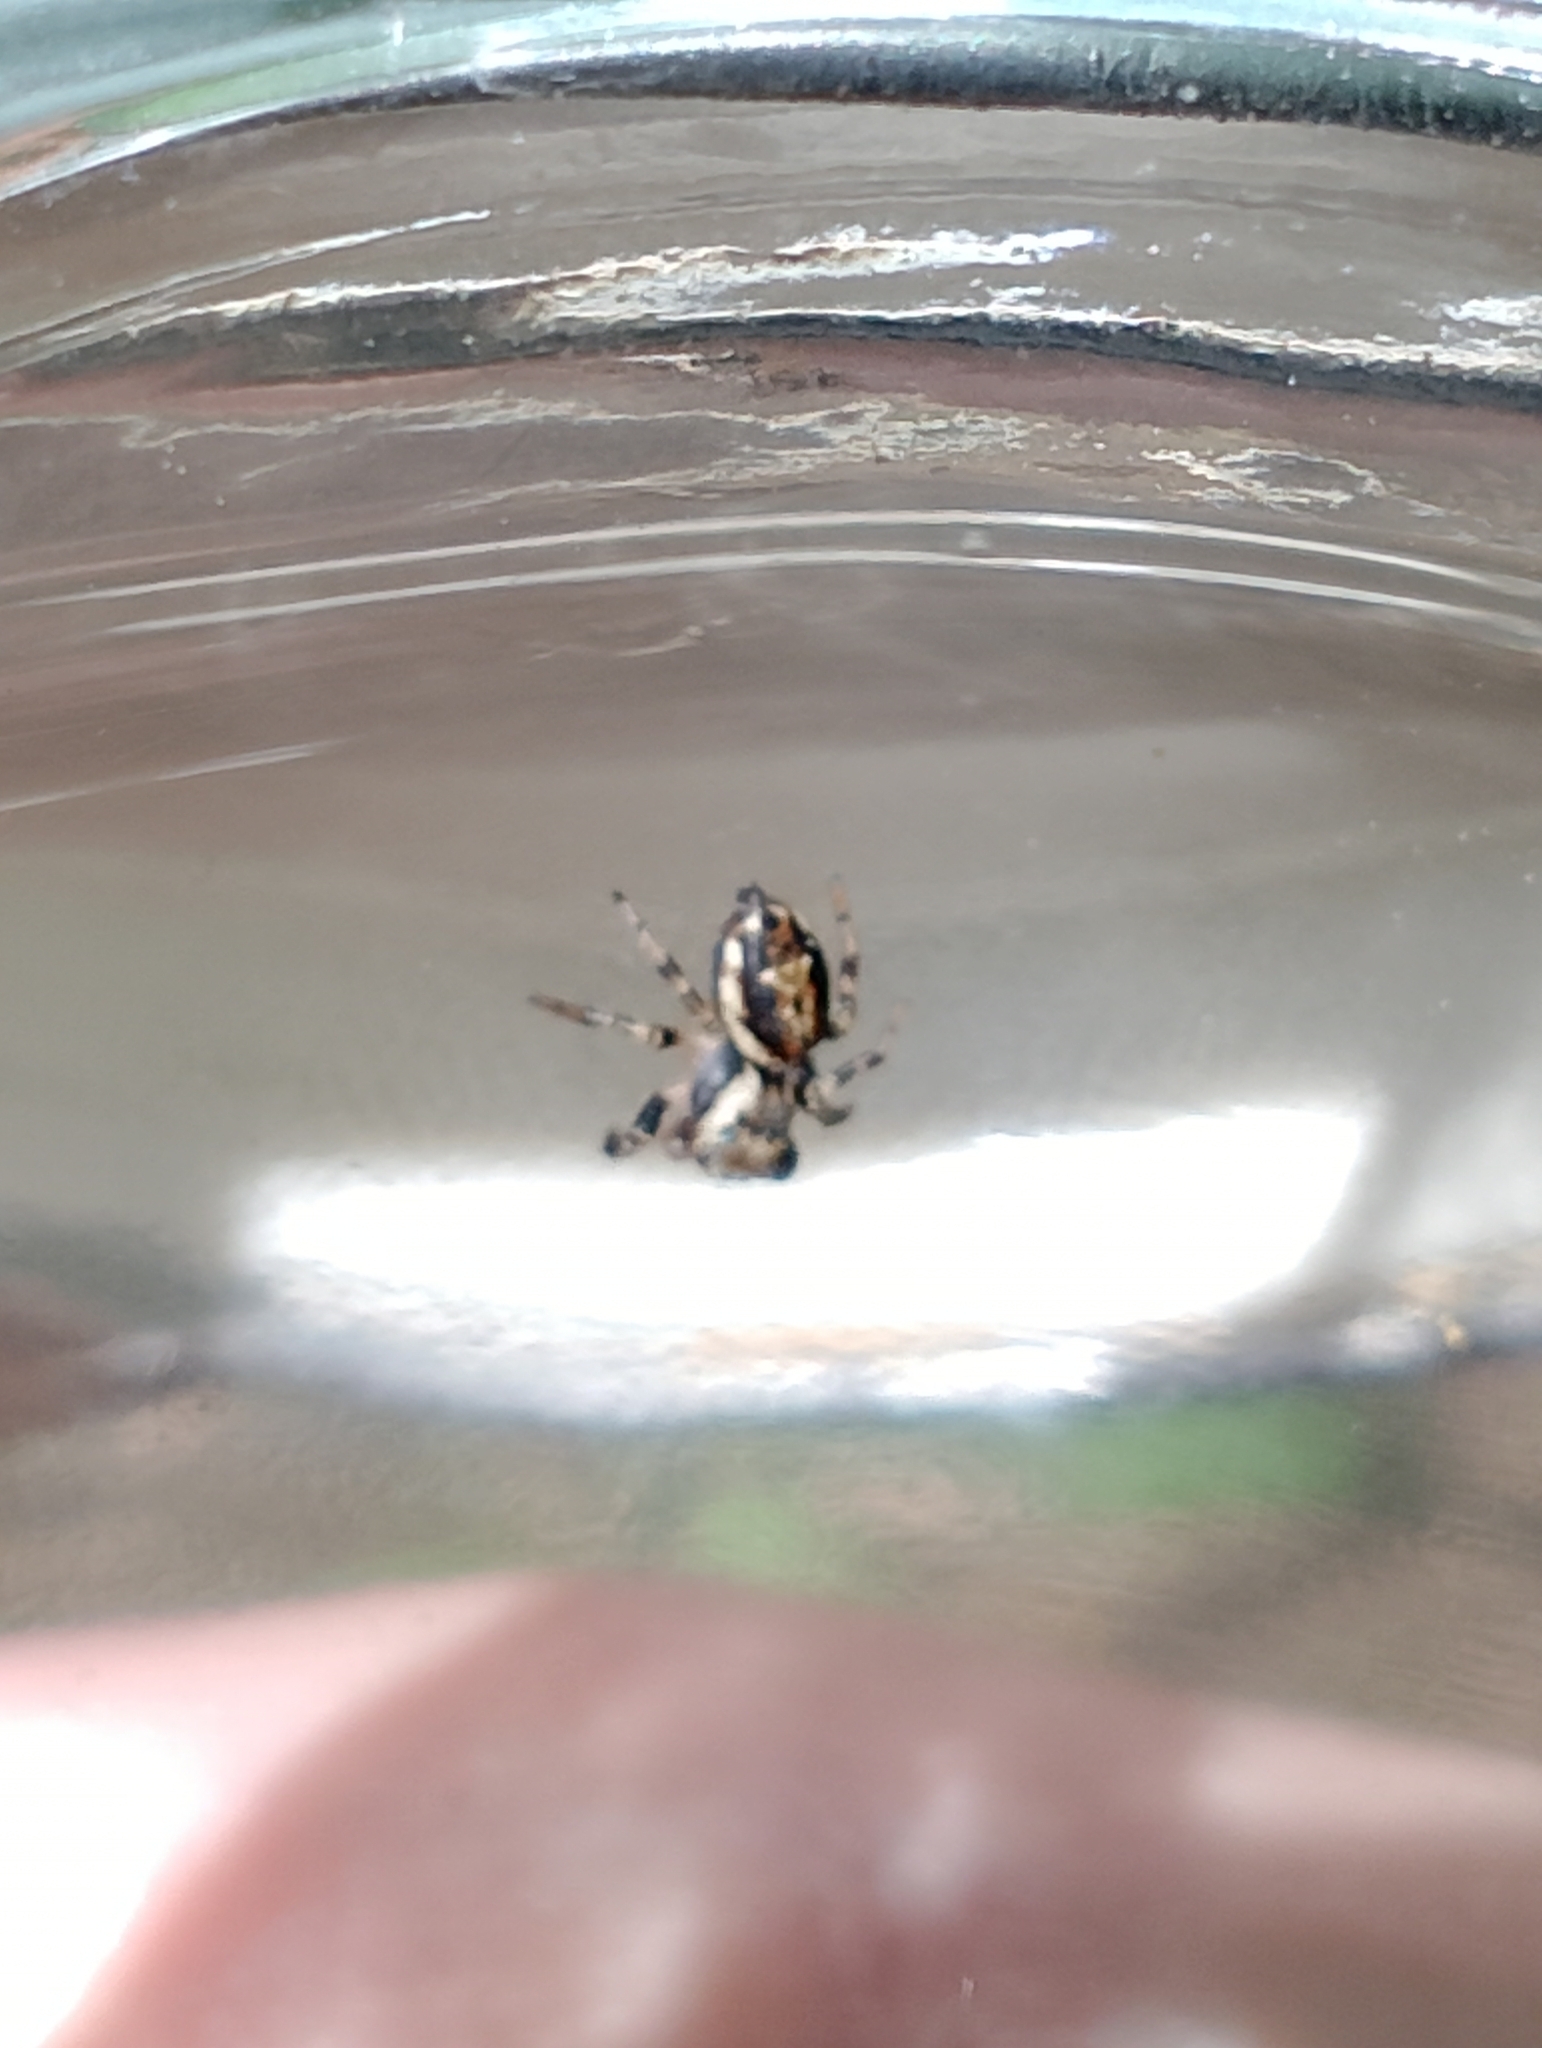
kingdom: Animalia
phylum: Arthropoda
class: Arachnida
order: Araneae
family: Salticidae
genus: Evarcha
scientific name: Evarcha falcata
